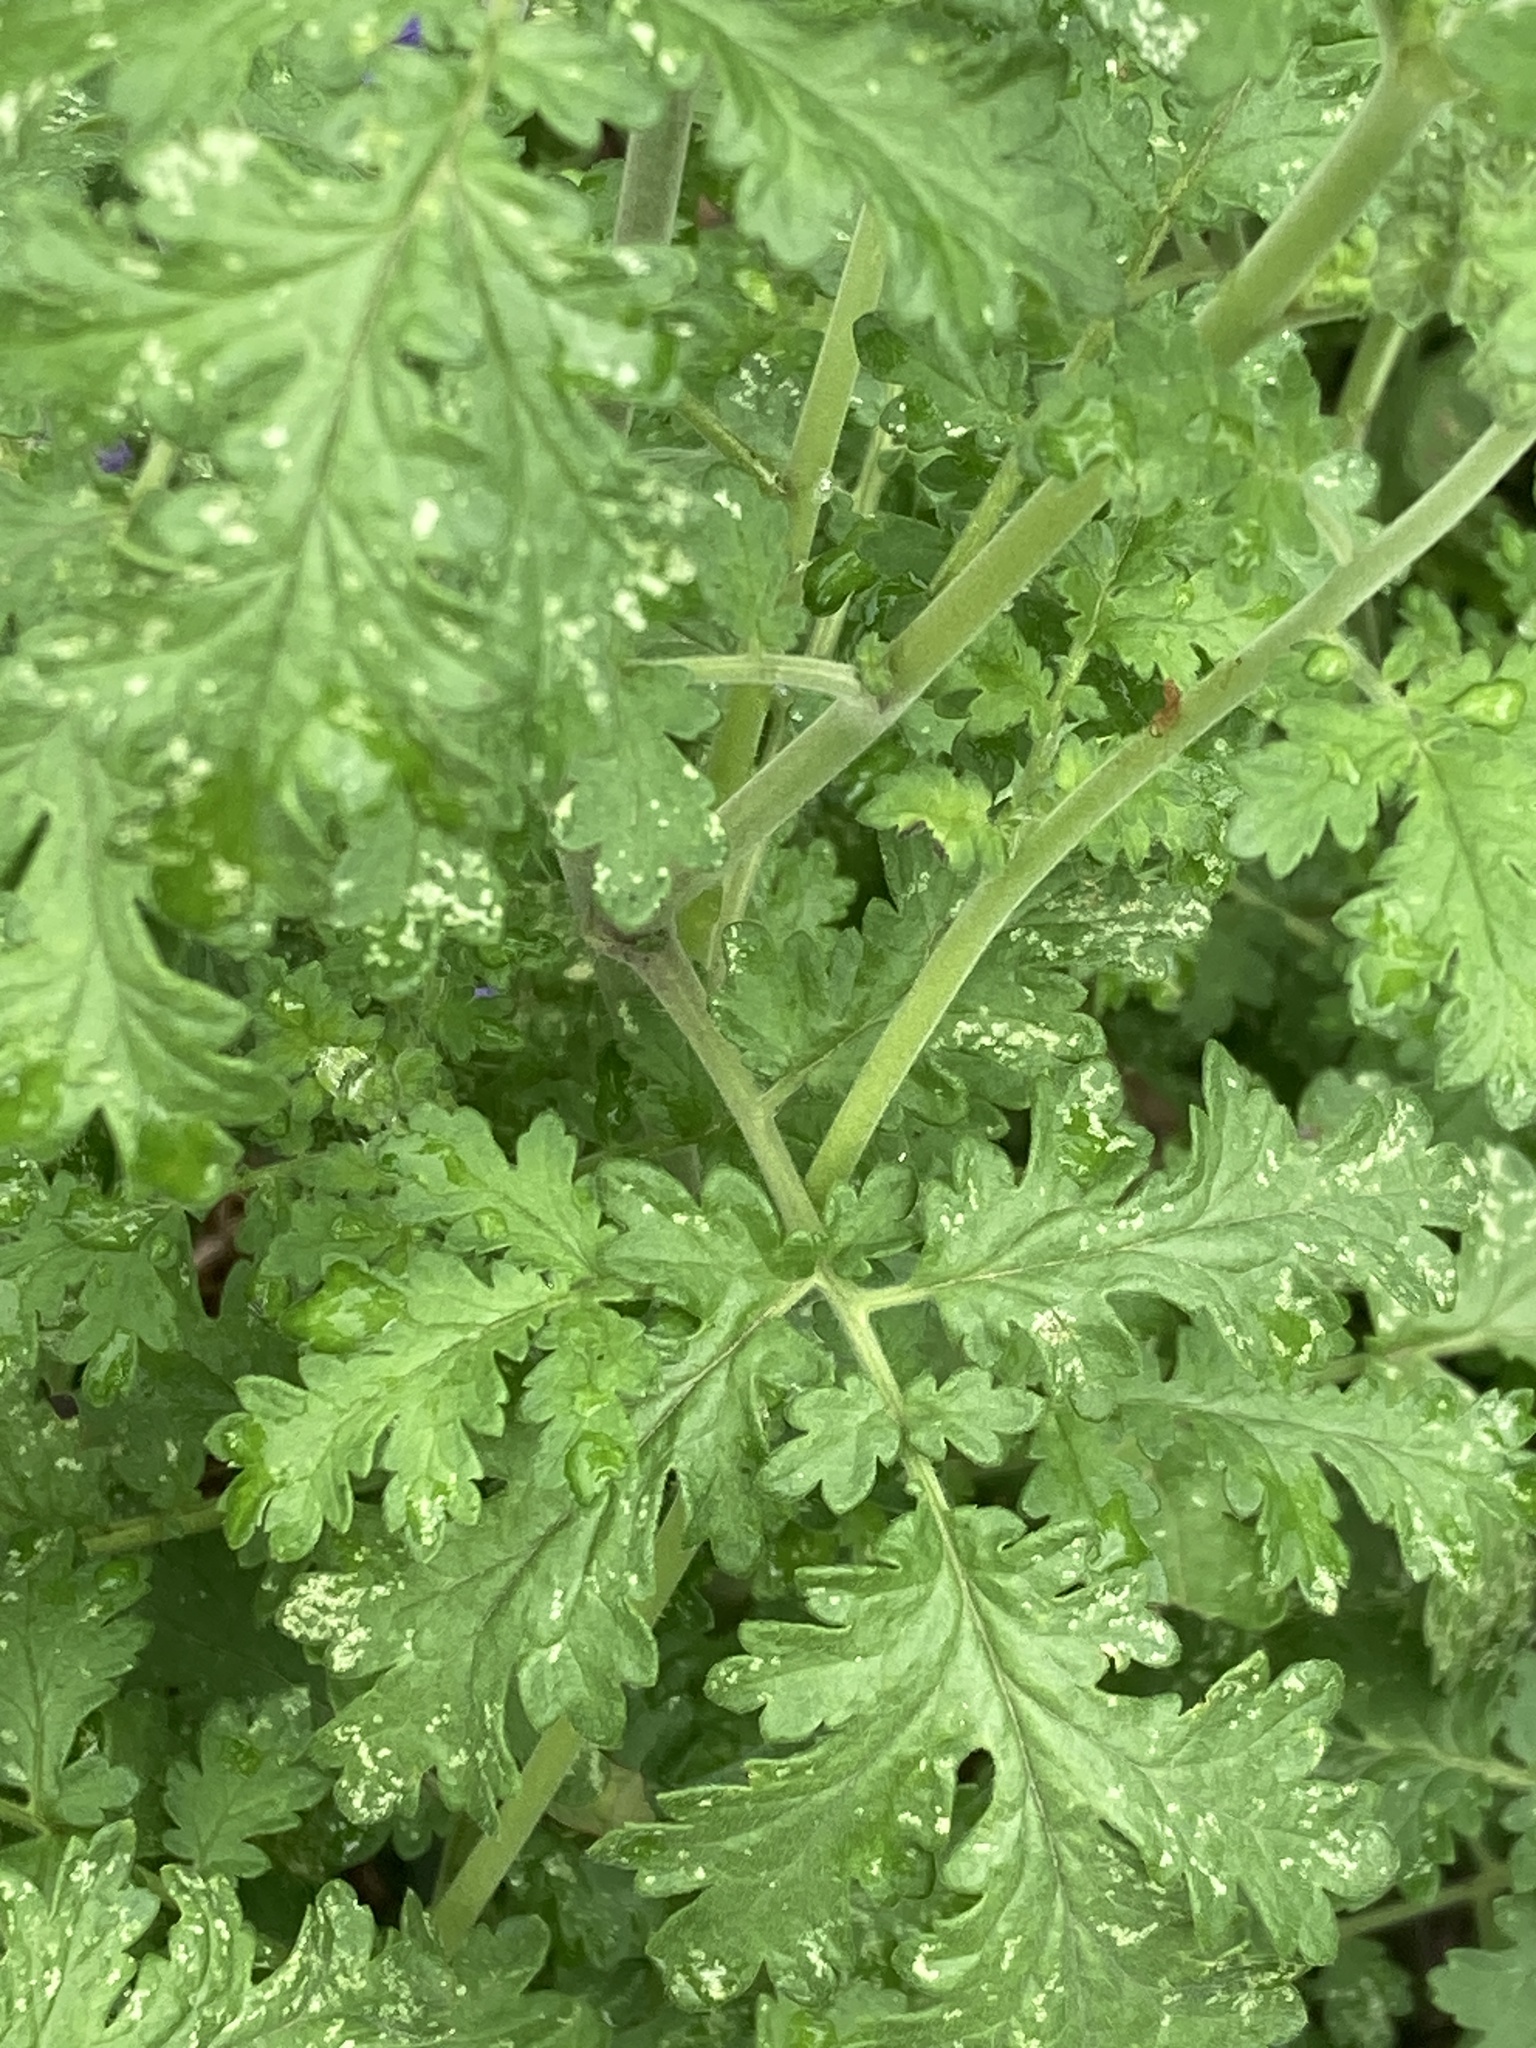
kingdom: Plantae
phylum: Tracheophyta
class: Magnoliopsida
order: Boraginales
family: Hydrophyllaceae
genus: Phacelia
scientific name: Phacelia congesta
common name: Blue curls
